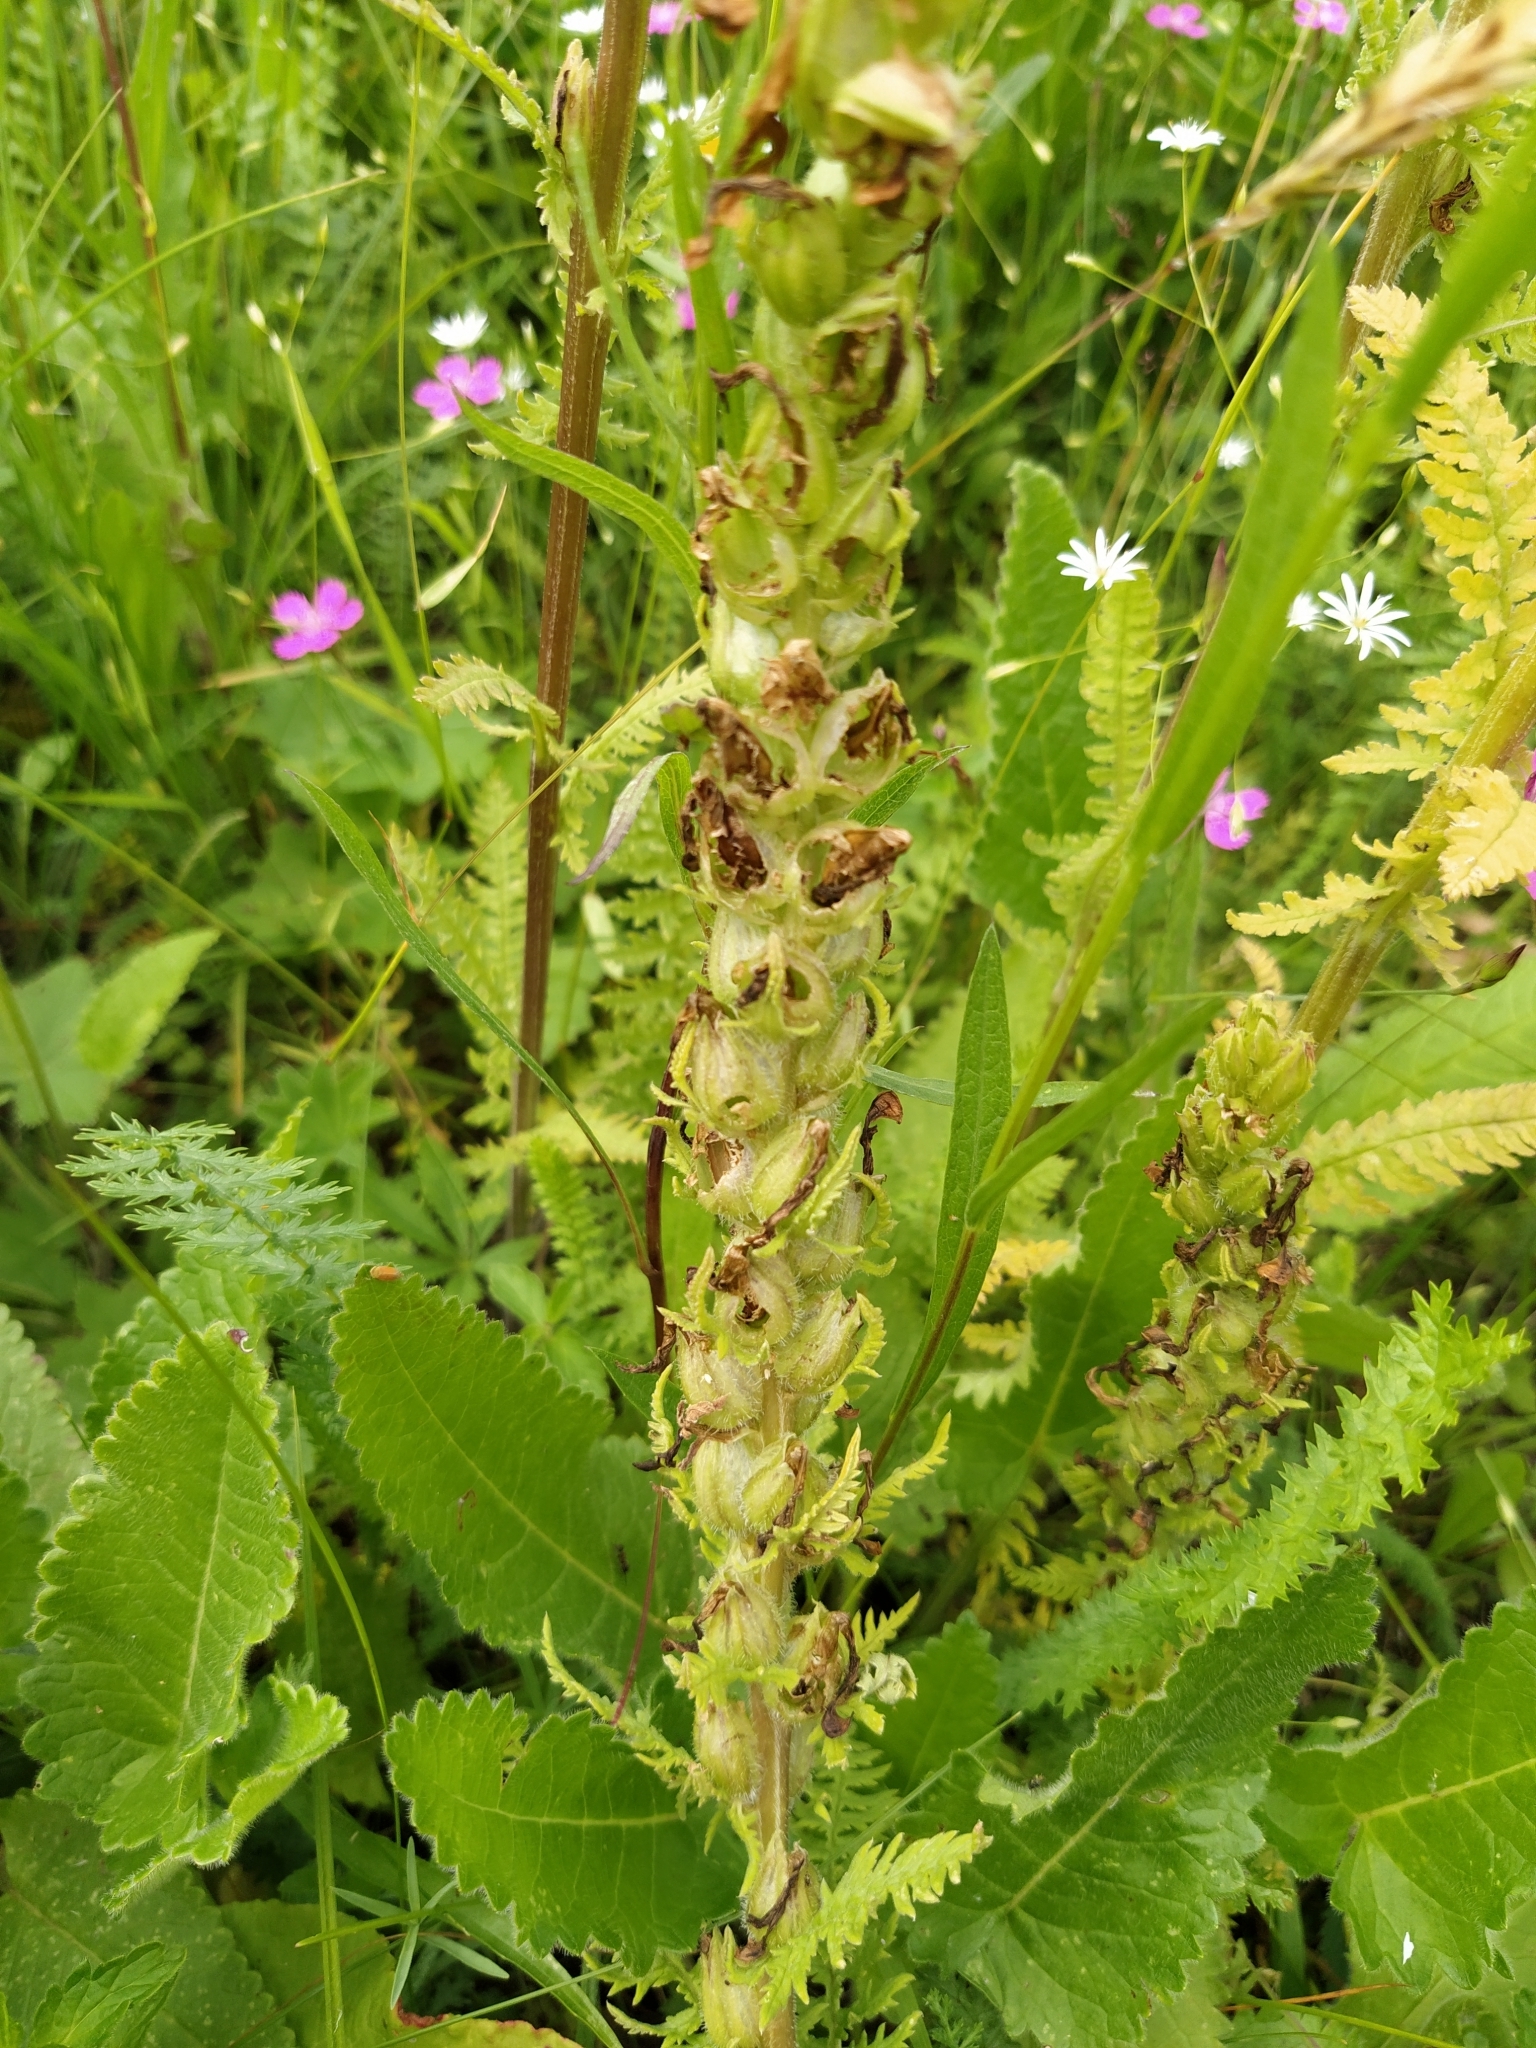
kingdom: Plantae
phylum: Tracheophyta
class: Magnoliopsida
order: Lamiales
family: Orobanchaceae
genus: Pedicularis
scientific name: Pedicularis kaufmannii
